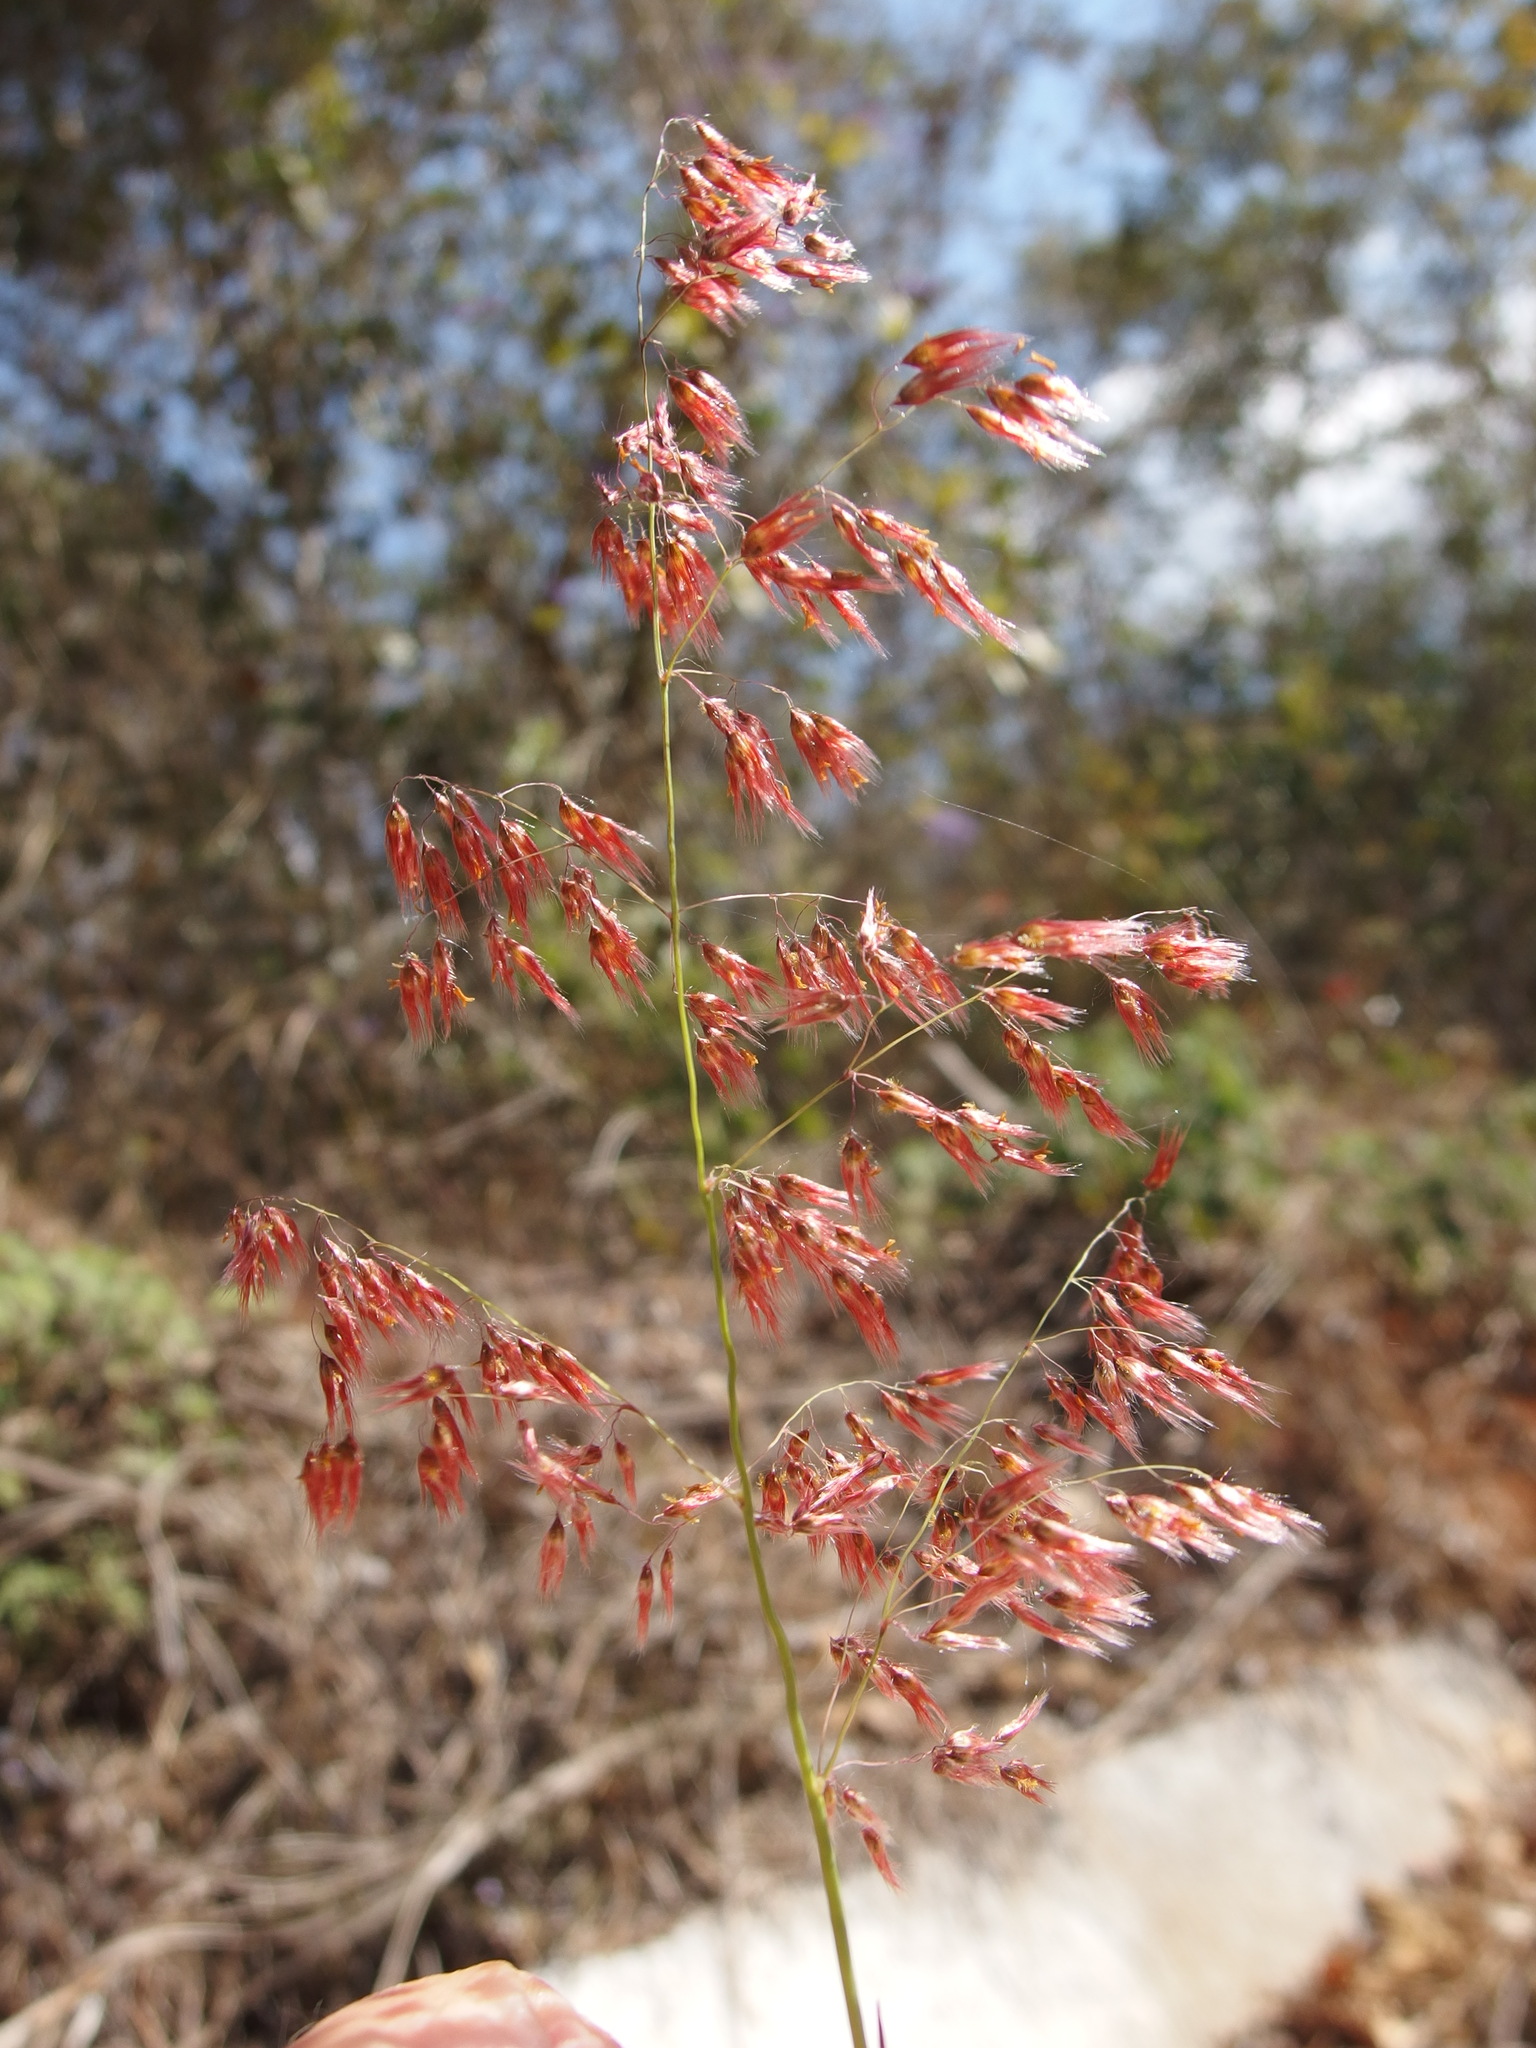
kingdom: Plantae
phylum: Tracheophyta
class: Liliopsida
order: Poales
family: Poaceae
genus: Melinis
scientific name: Melinis repens
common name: Rose natal grass
